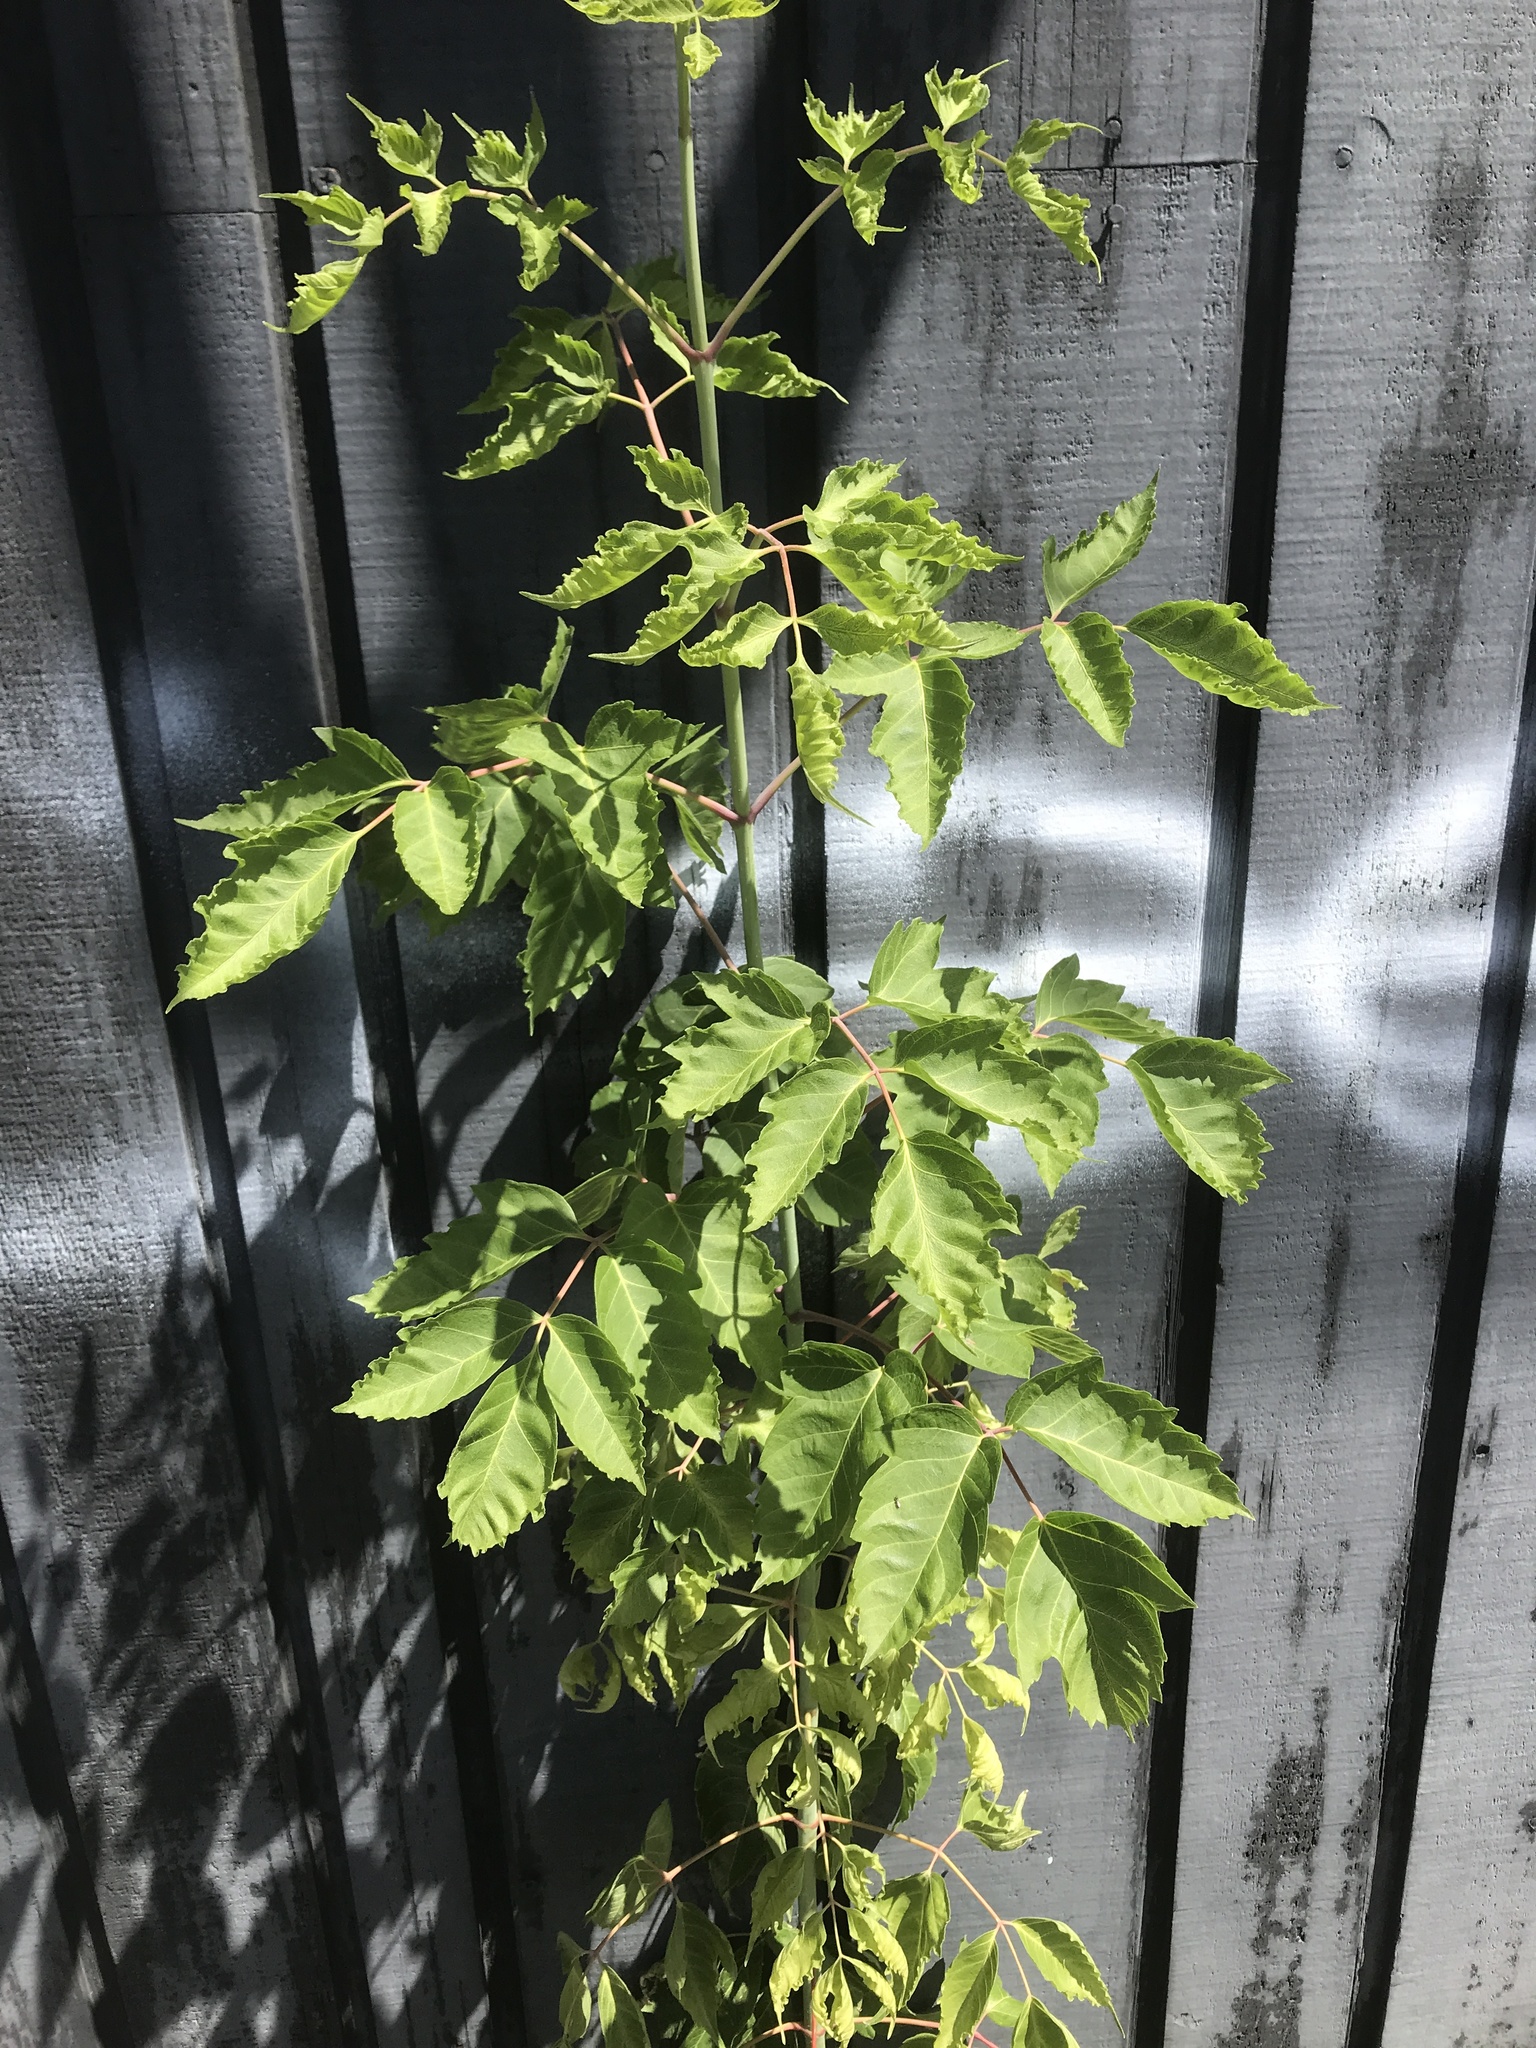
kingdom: Plantae
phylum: Tracheophyta
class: Magnoliopsida
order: Sapindales
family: Sapindaceae
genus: Acer
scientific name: Acer negundo
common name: Ashleaf maple
